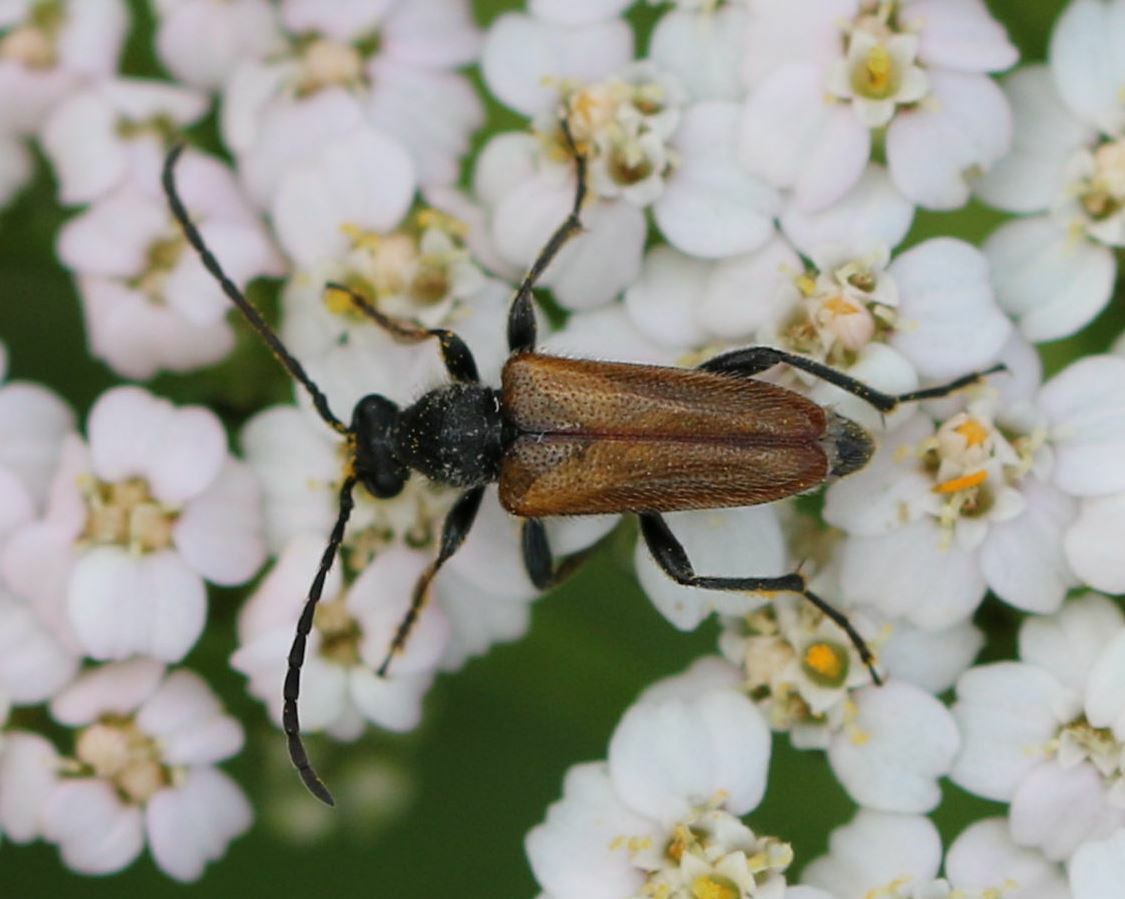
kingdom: Animalia
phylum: Arthropoda
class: Insecta
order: Coleoptera
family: Cerambycidae
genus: Pseudovadonia
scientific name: Pseudovadonia livida
